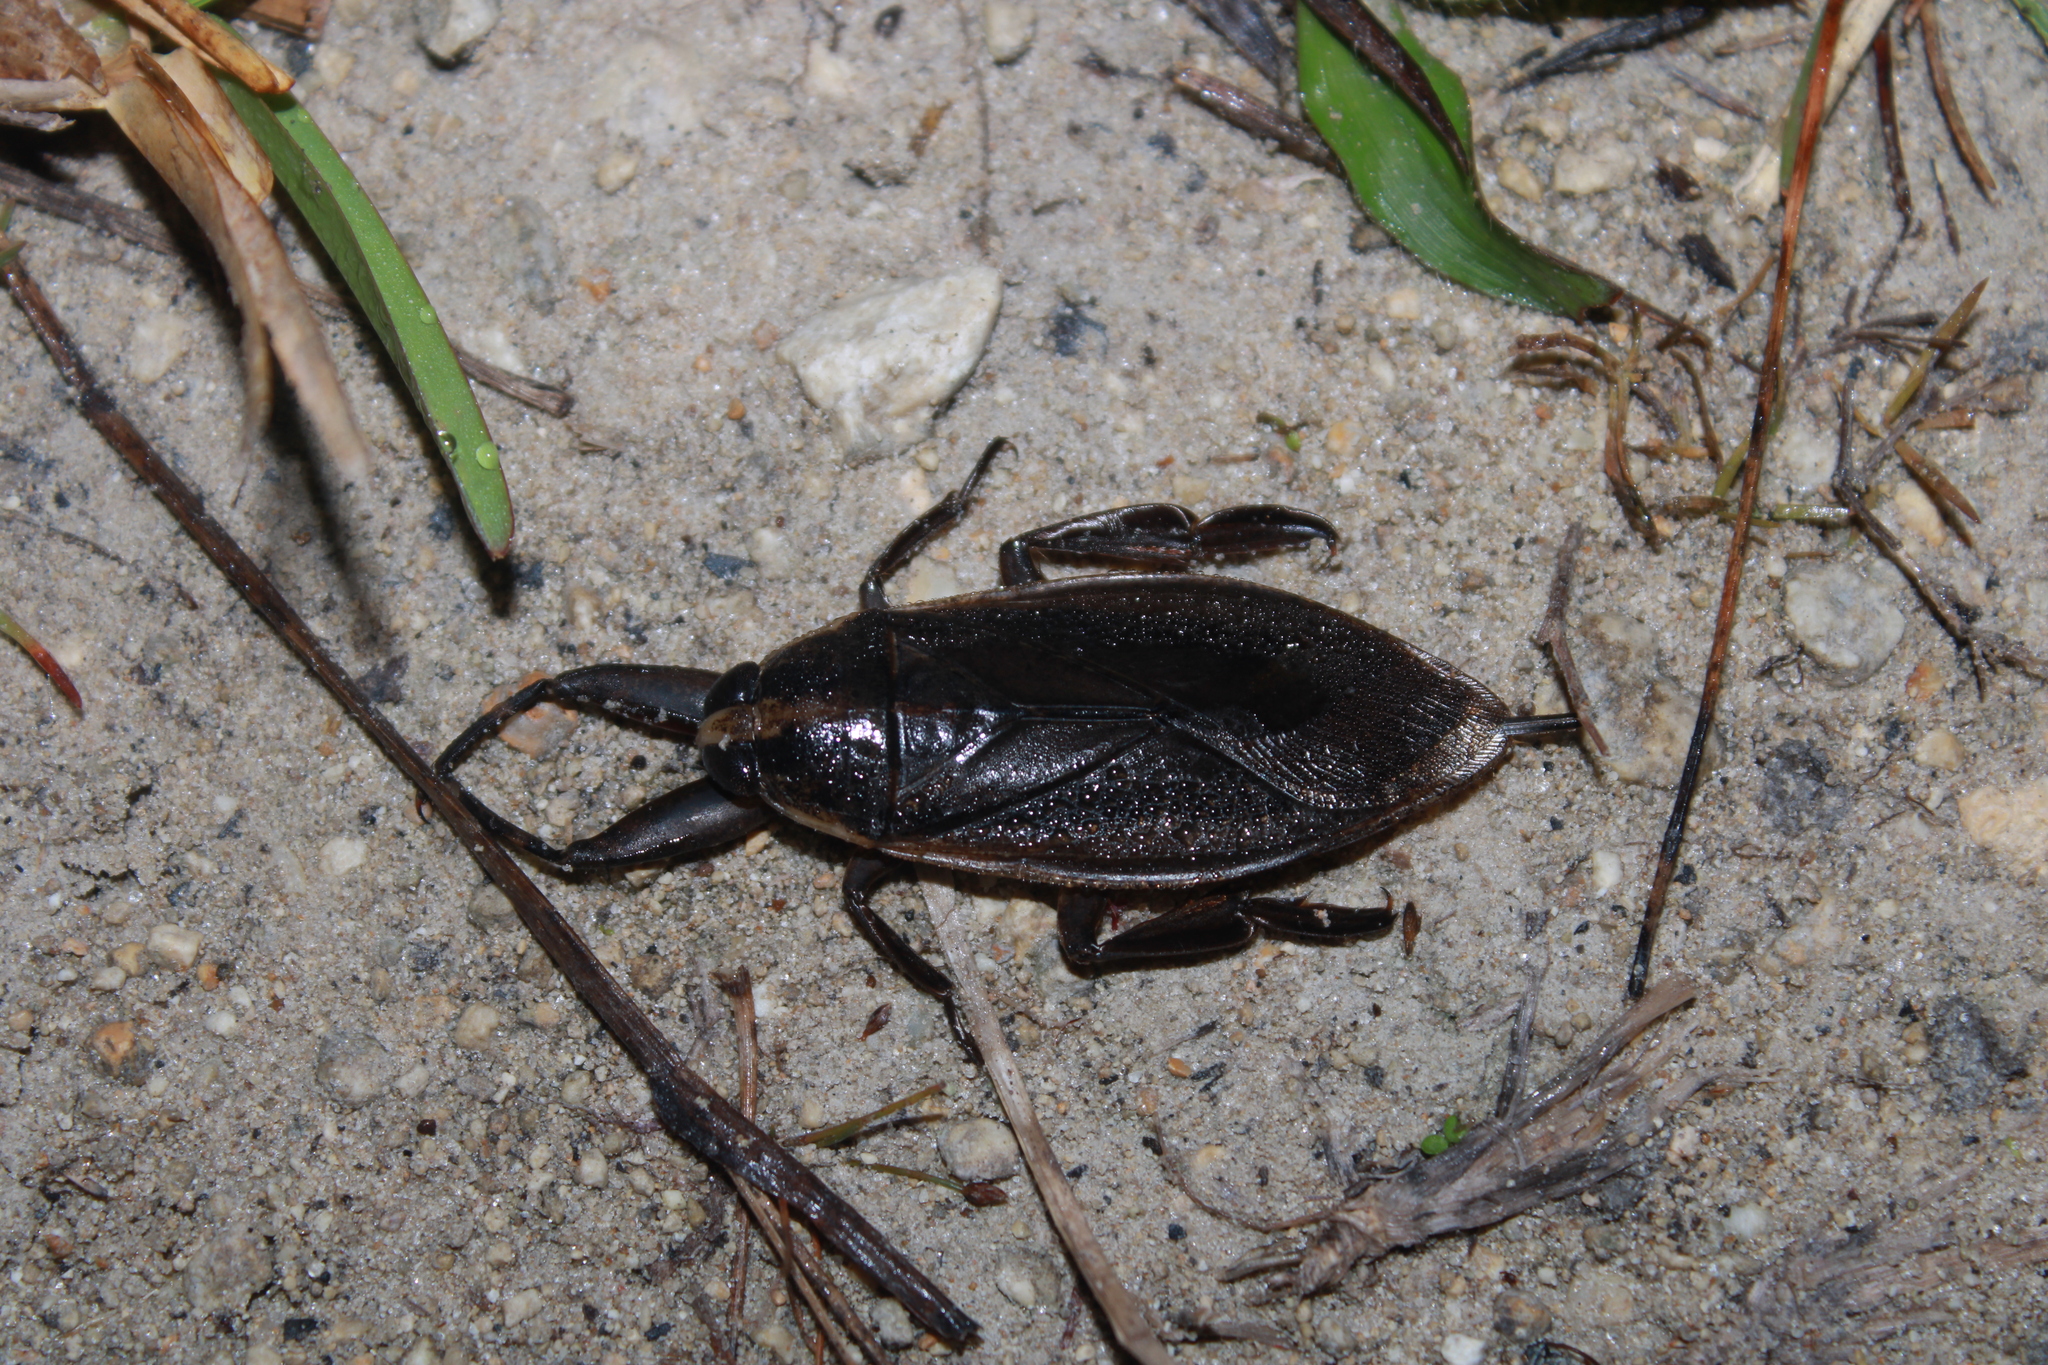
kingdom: Animalia
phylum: Arthropoda
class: Insecta
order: Hemiptera
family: Belostomatidae
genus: Benacus
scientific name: Benacus griseus
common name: Eastern toe-biter
